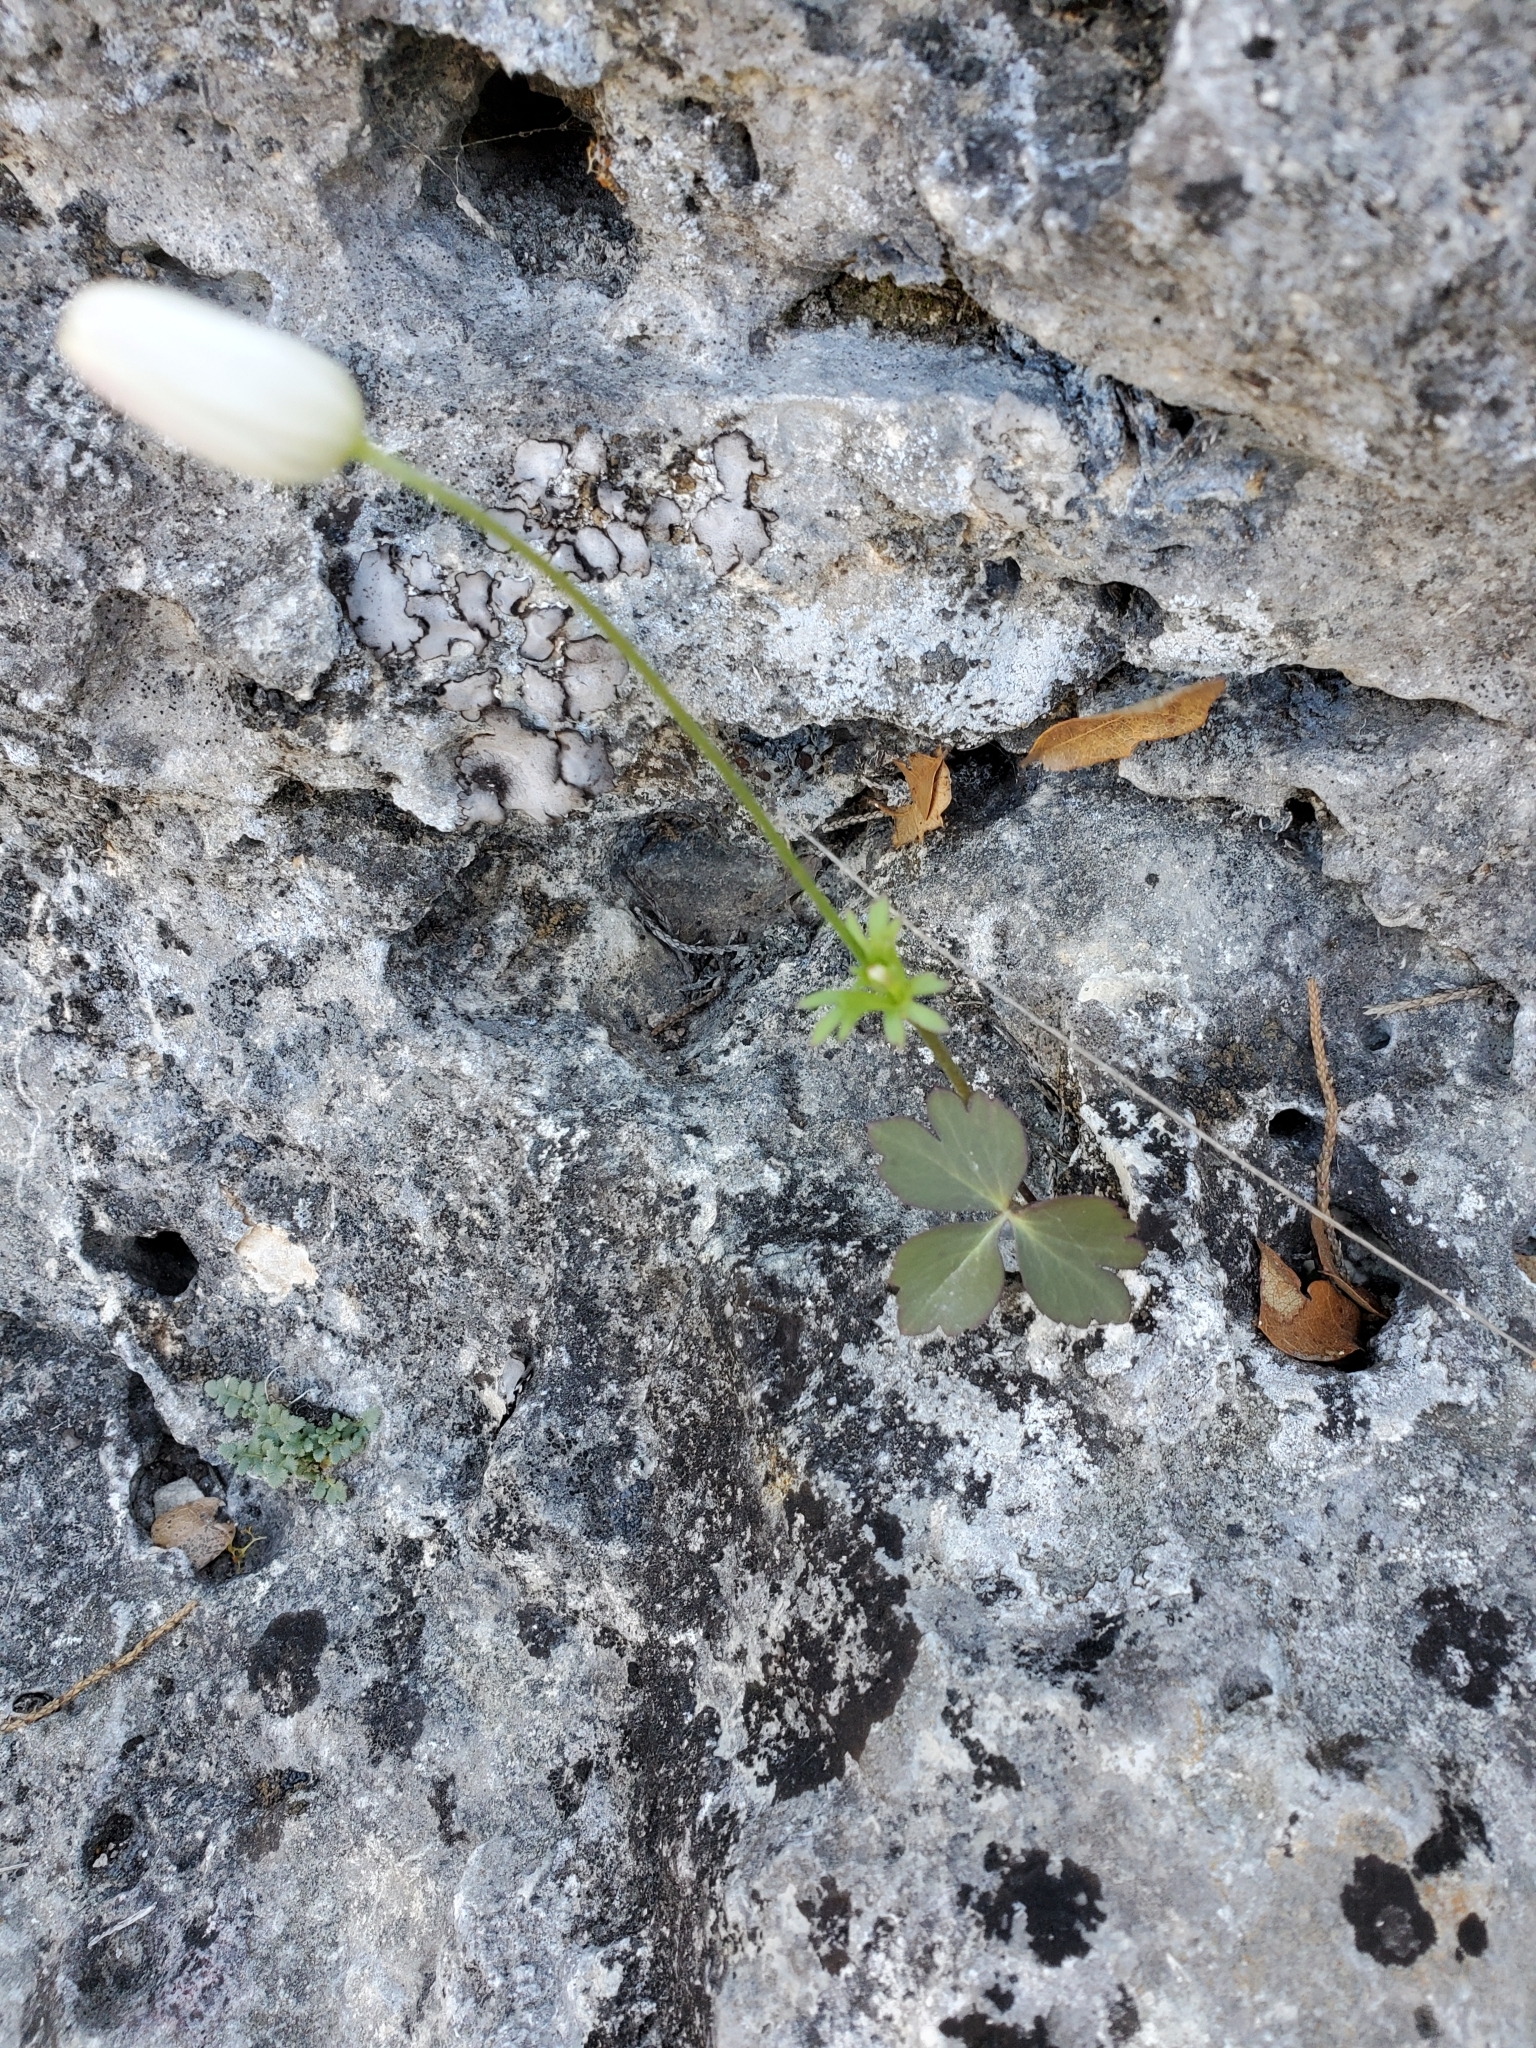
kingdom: Plantae
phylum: Tracheophyta
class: Magnoliopsida
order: Ranunculales
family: Ranunculaceae
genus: Anemone
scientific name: Anemone edwardsiana
